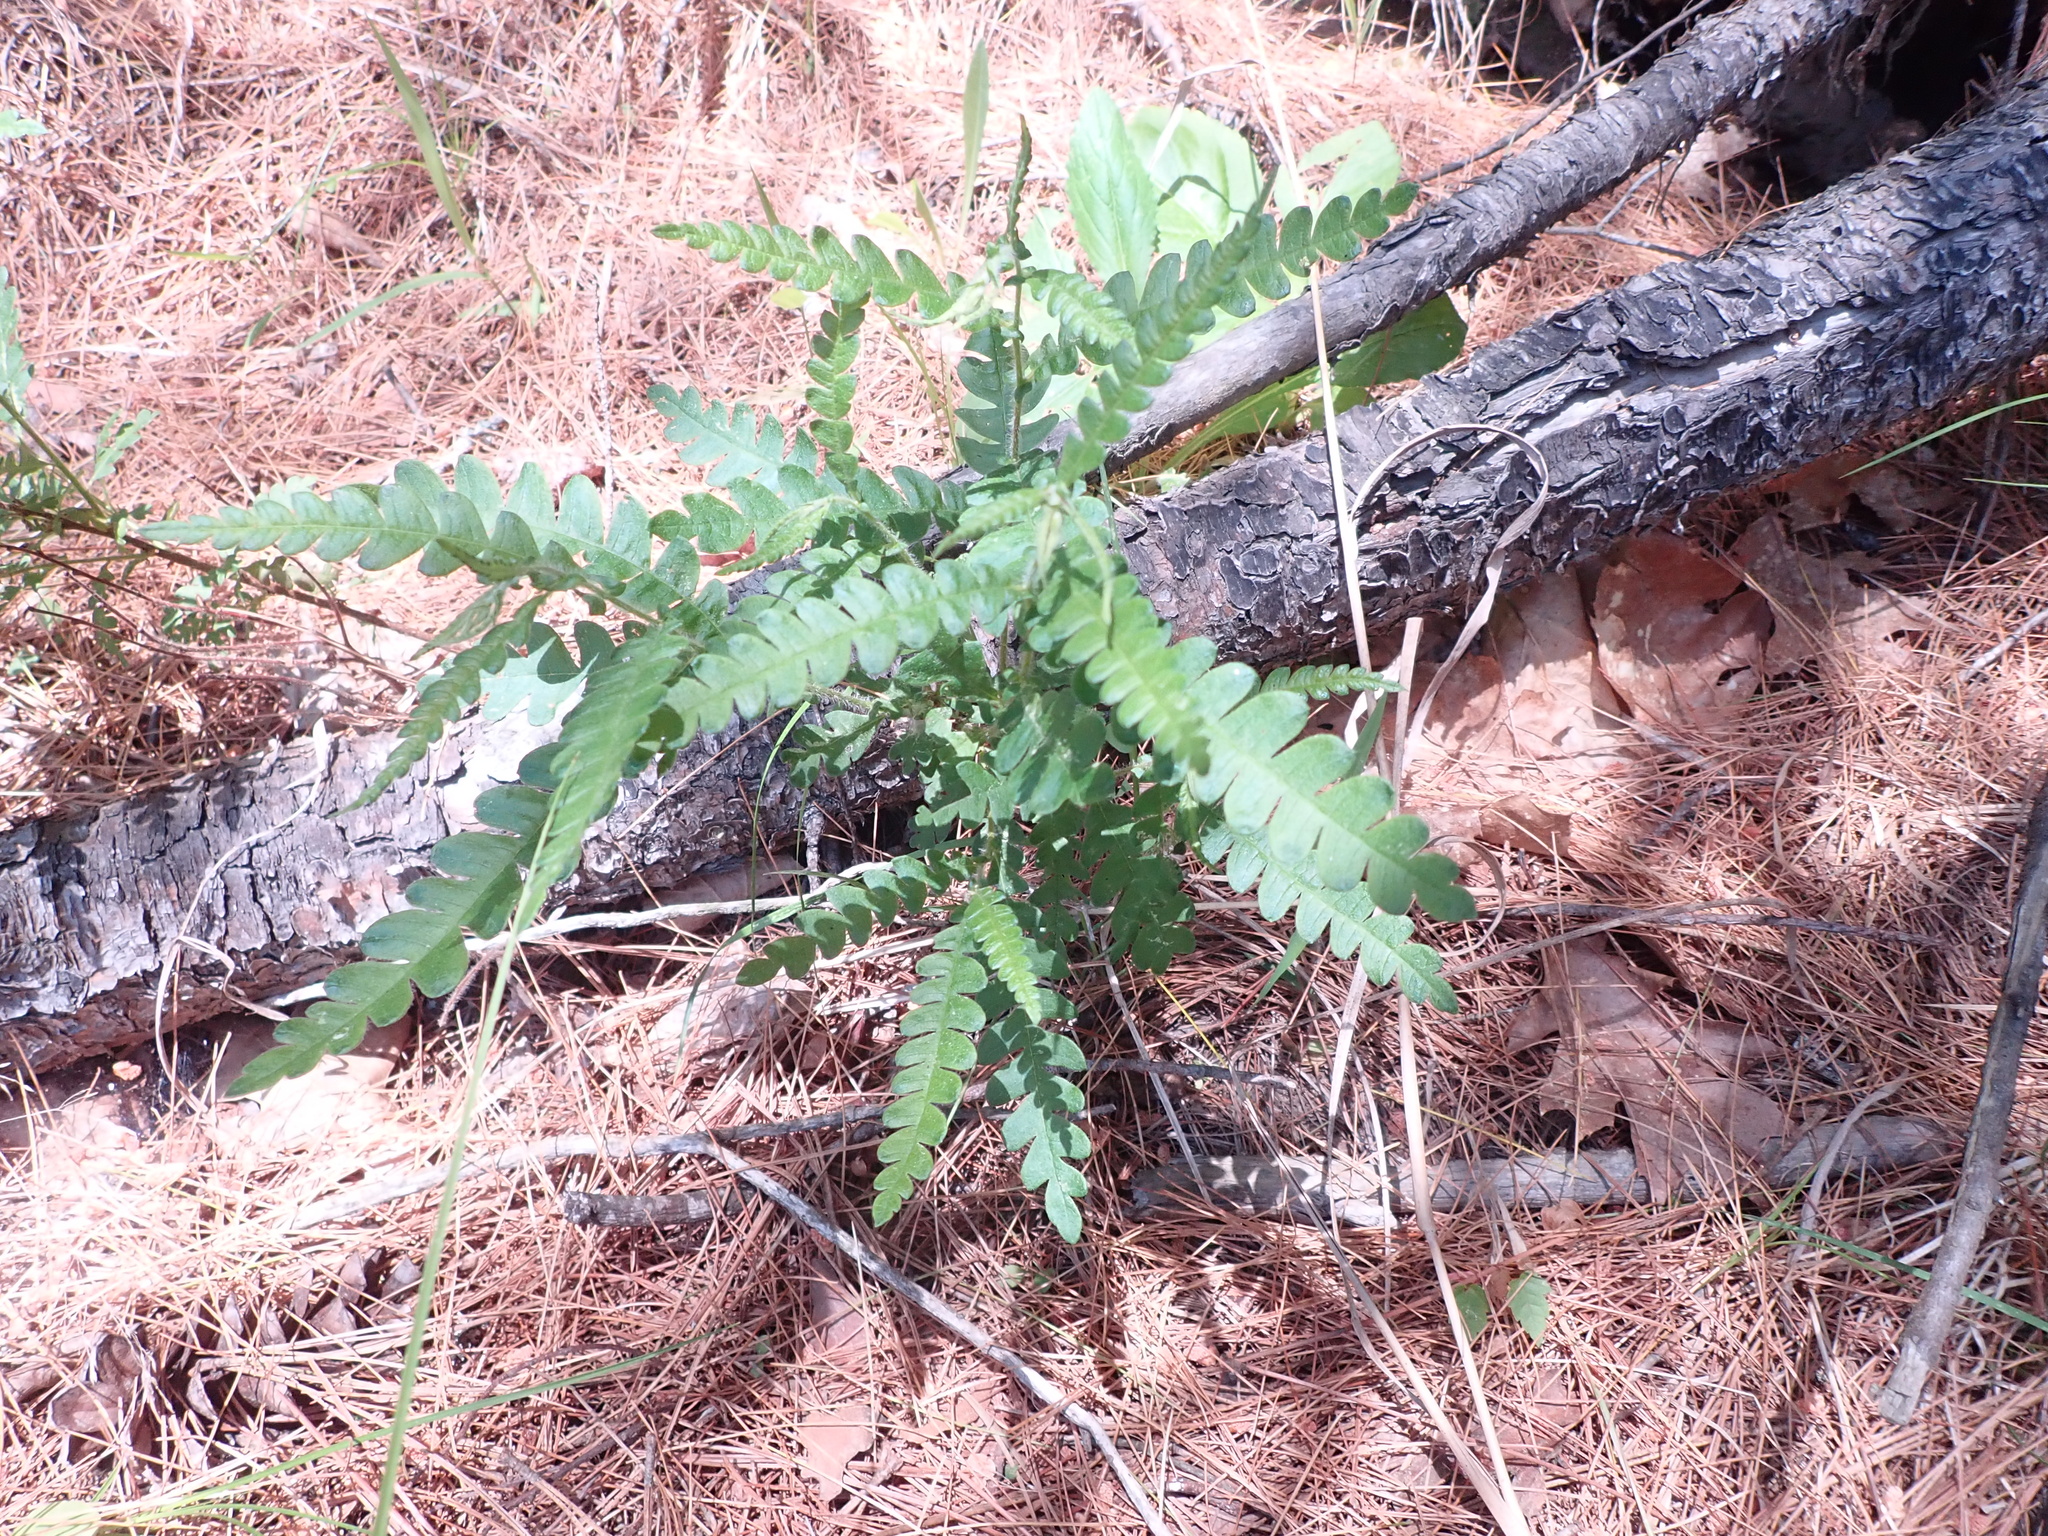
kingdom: Plantae
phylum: Tracheophyta
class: Magnoliopsida
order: Fagales
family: Myricaceae
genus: Comptonia
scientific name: Comptonia peregrina
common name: Sweet-fern
